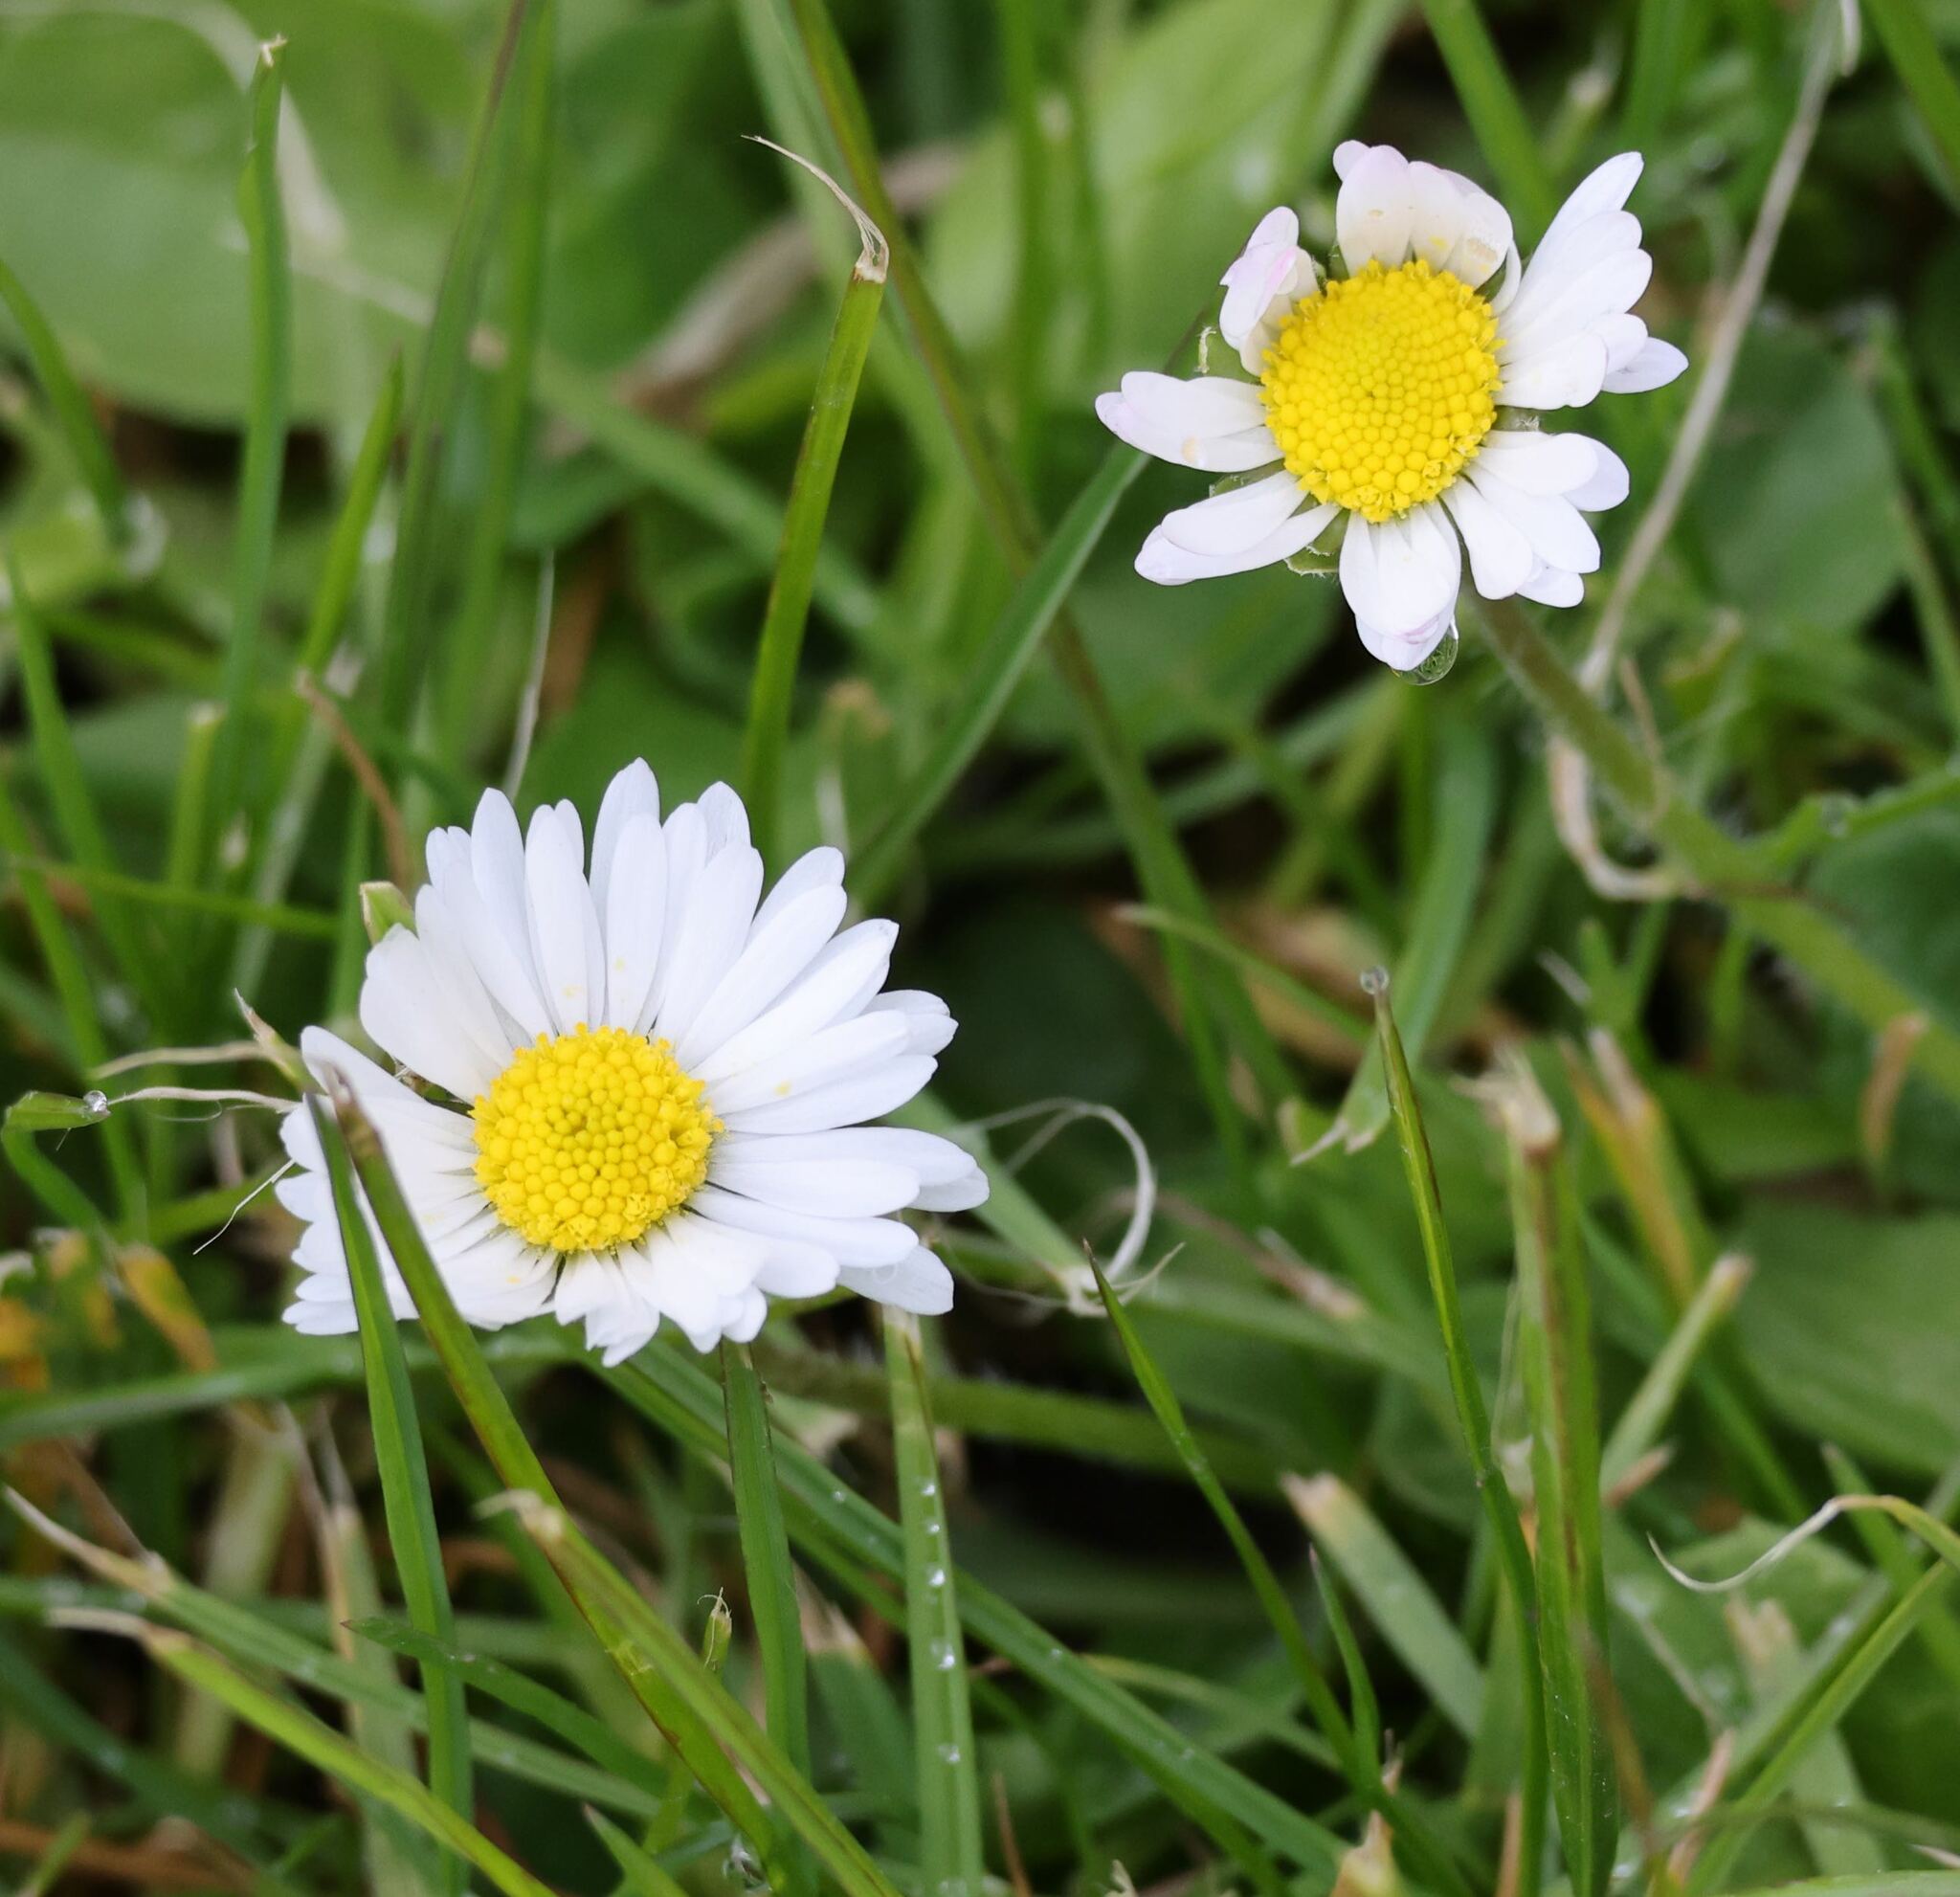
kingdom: Plantae
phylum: Tracheophyta
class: Magnoliopsida
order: Asterales
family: Asteraceae
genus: Bellis
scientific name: Bellis perennis
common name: Lawndaisy
